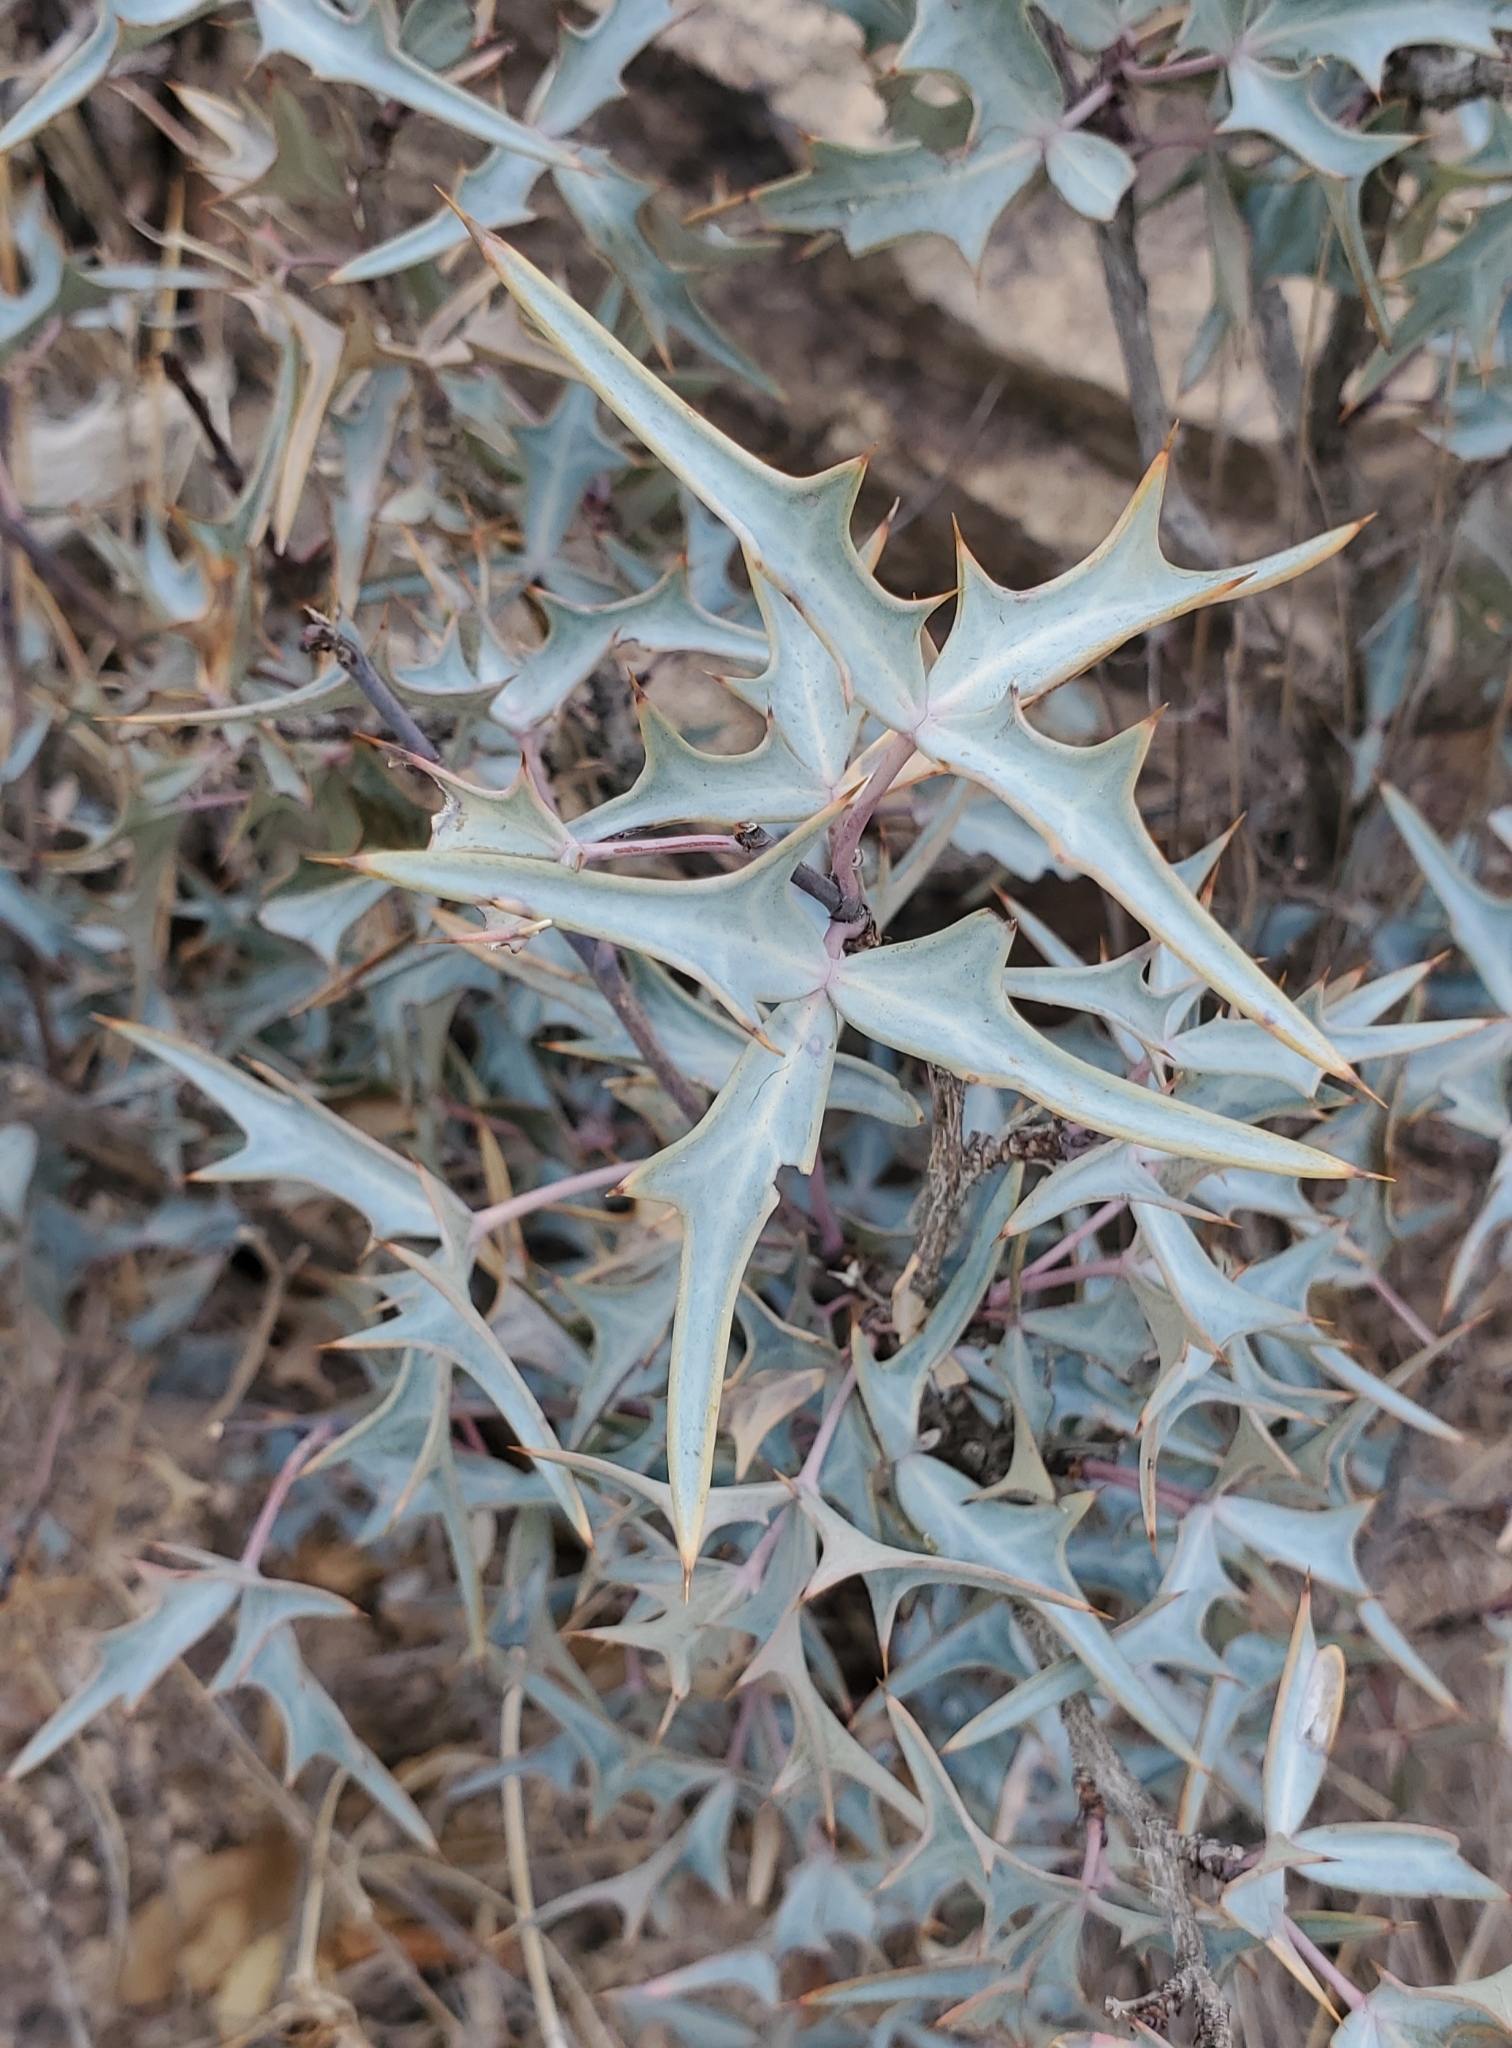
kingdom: Plantae
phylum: Tracheophyta
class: Magnoliopsida
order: Ranunculales
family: Berberidaceae
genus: Alloberberis
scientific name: Alloberberis trifoliolata
